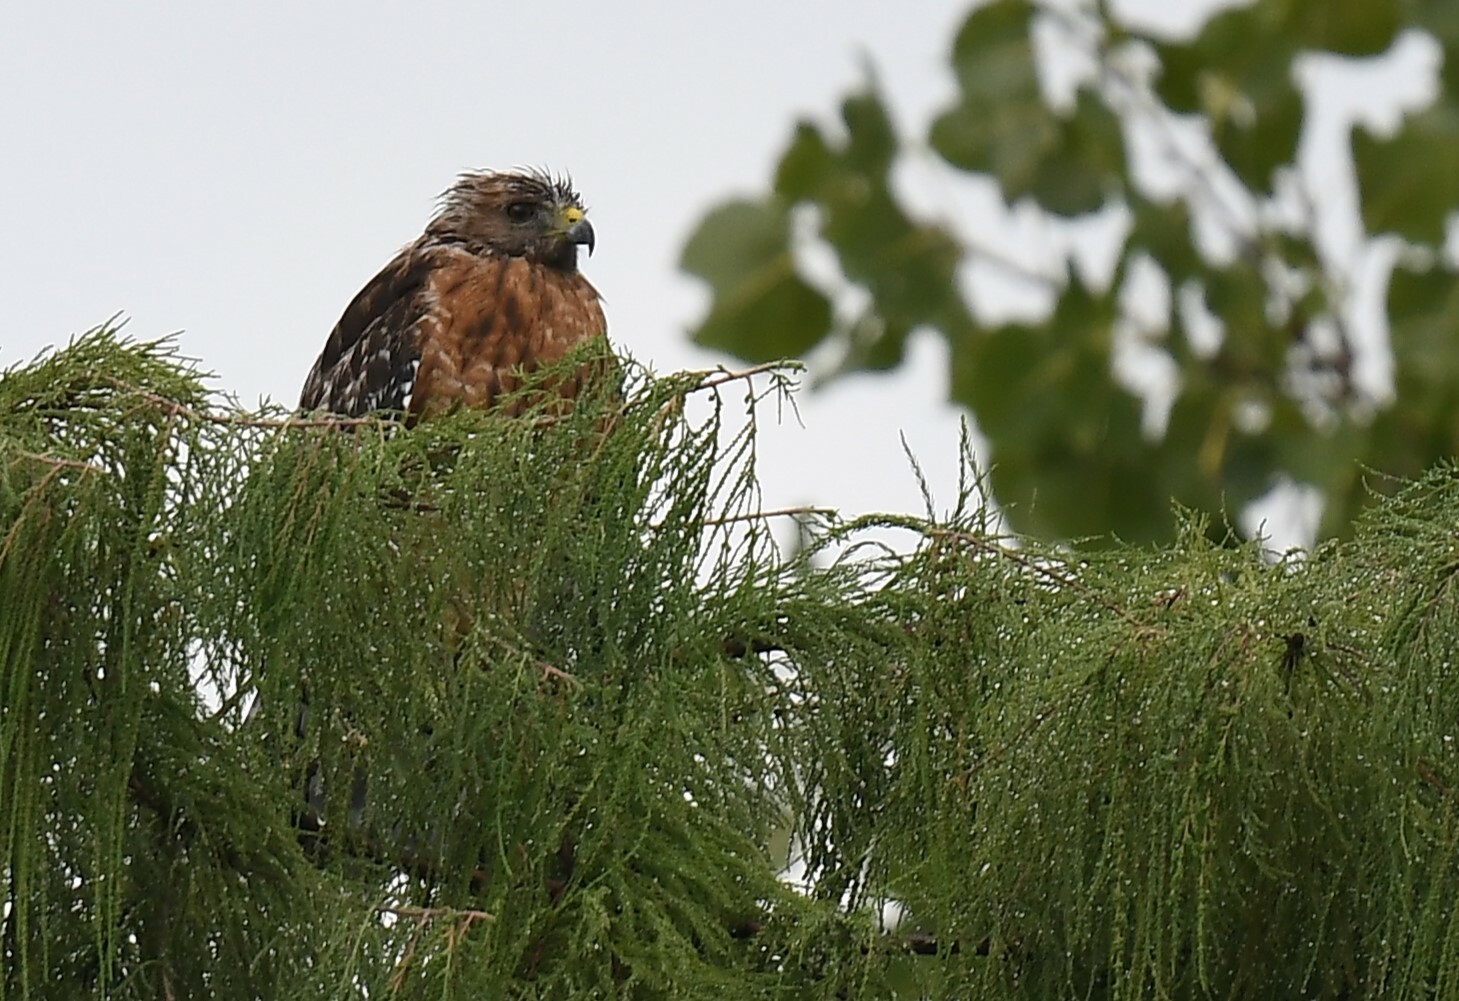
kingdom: Animalia
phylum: Chordata
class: Aves
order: Accipitriformes
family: Accipitridae
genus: Buteo
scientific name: Buteo lineatus
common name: Red-shouldered hawk
